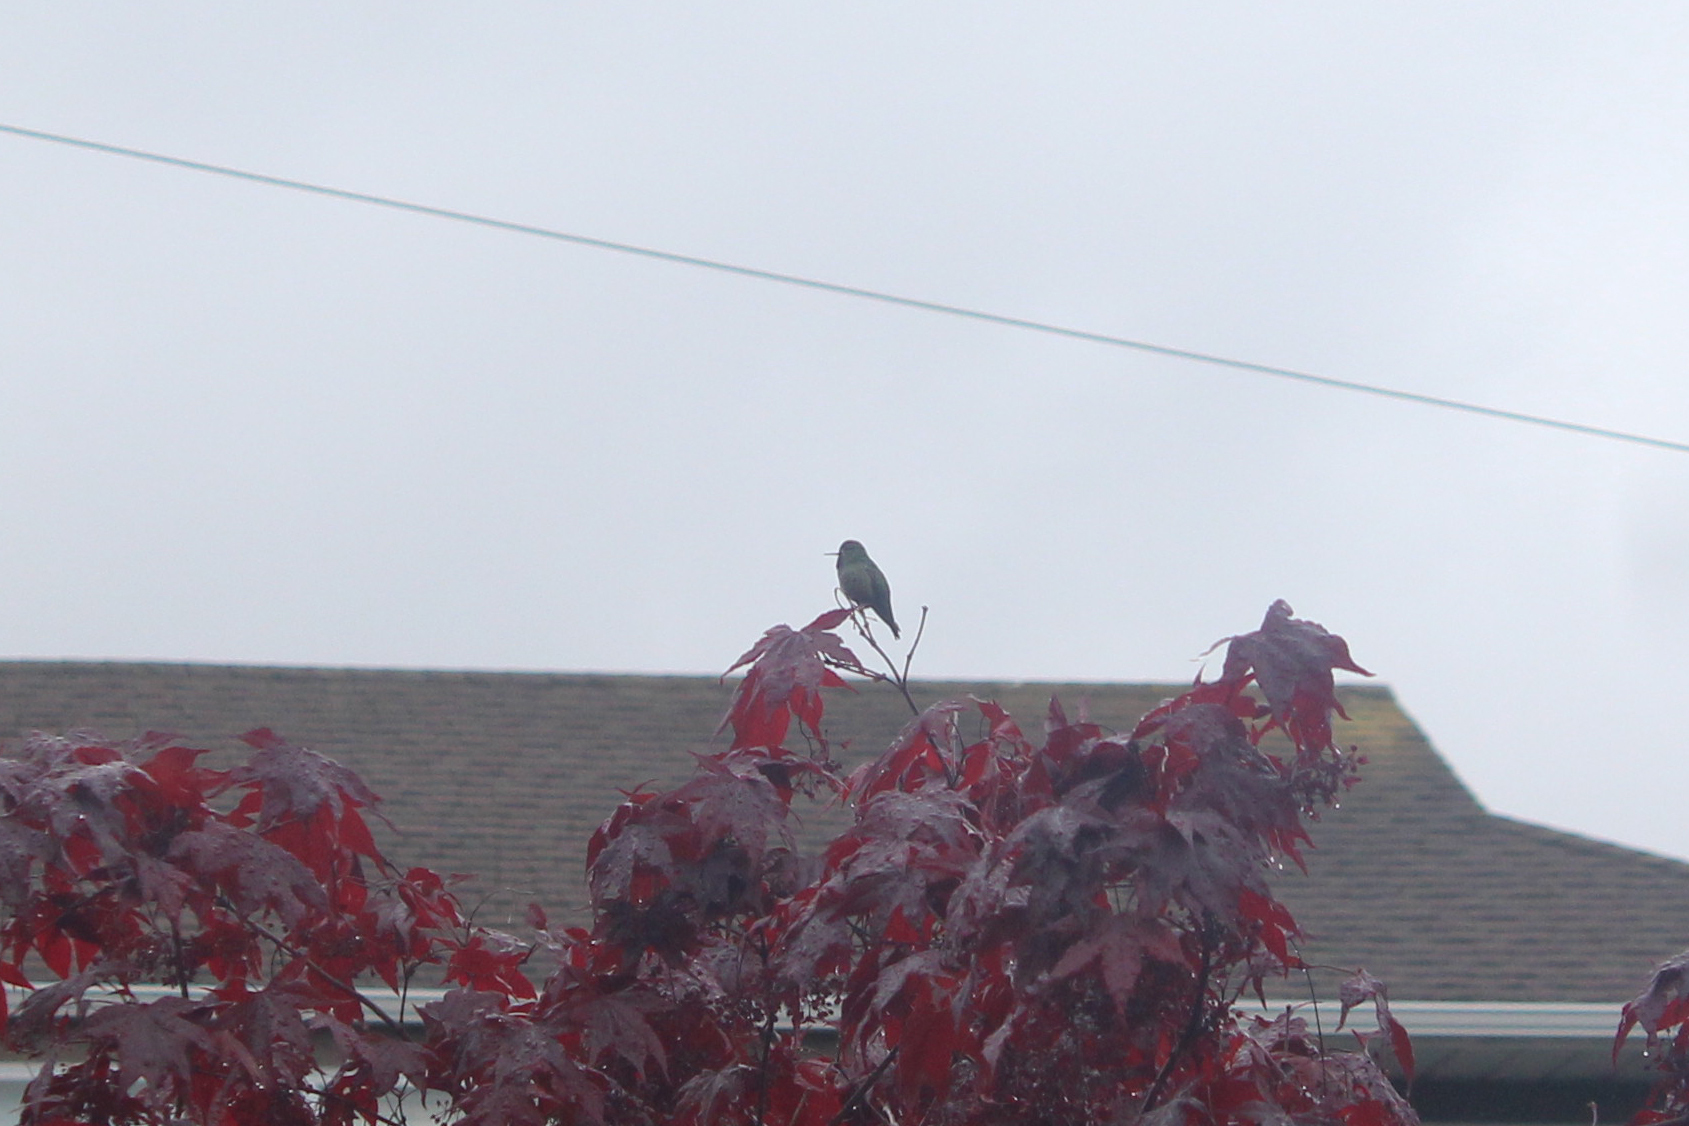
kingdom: Animalia
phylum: Chordata
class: Aves
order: Apodiformes
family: Trochilidae
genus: Calypte
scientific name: Calypte anna
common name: Anna's hummingbird
